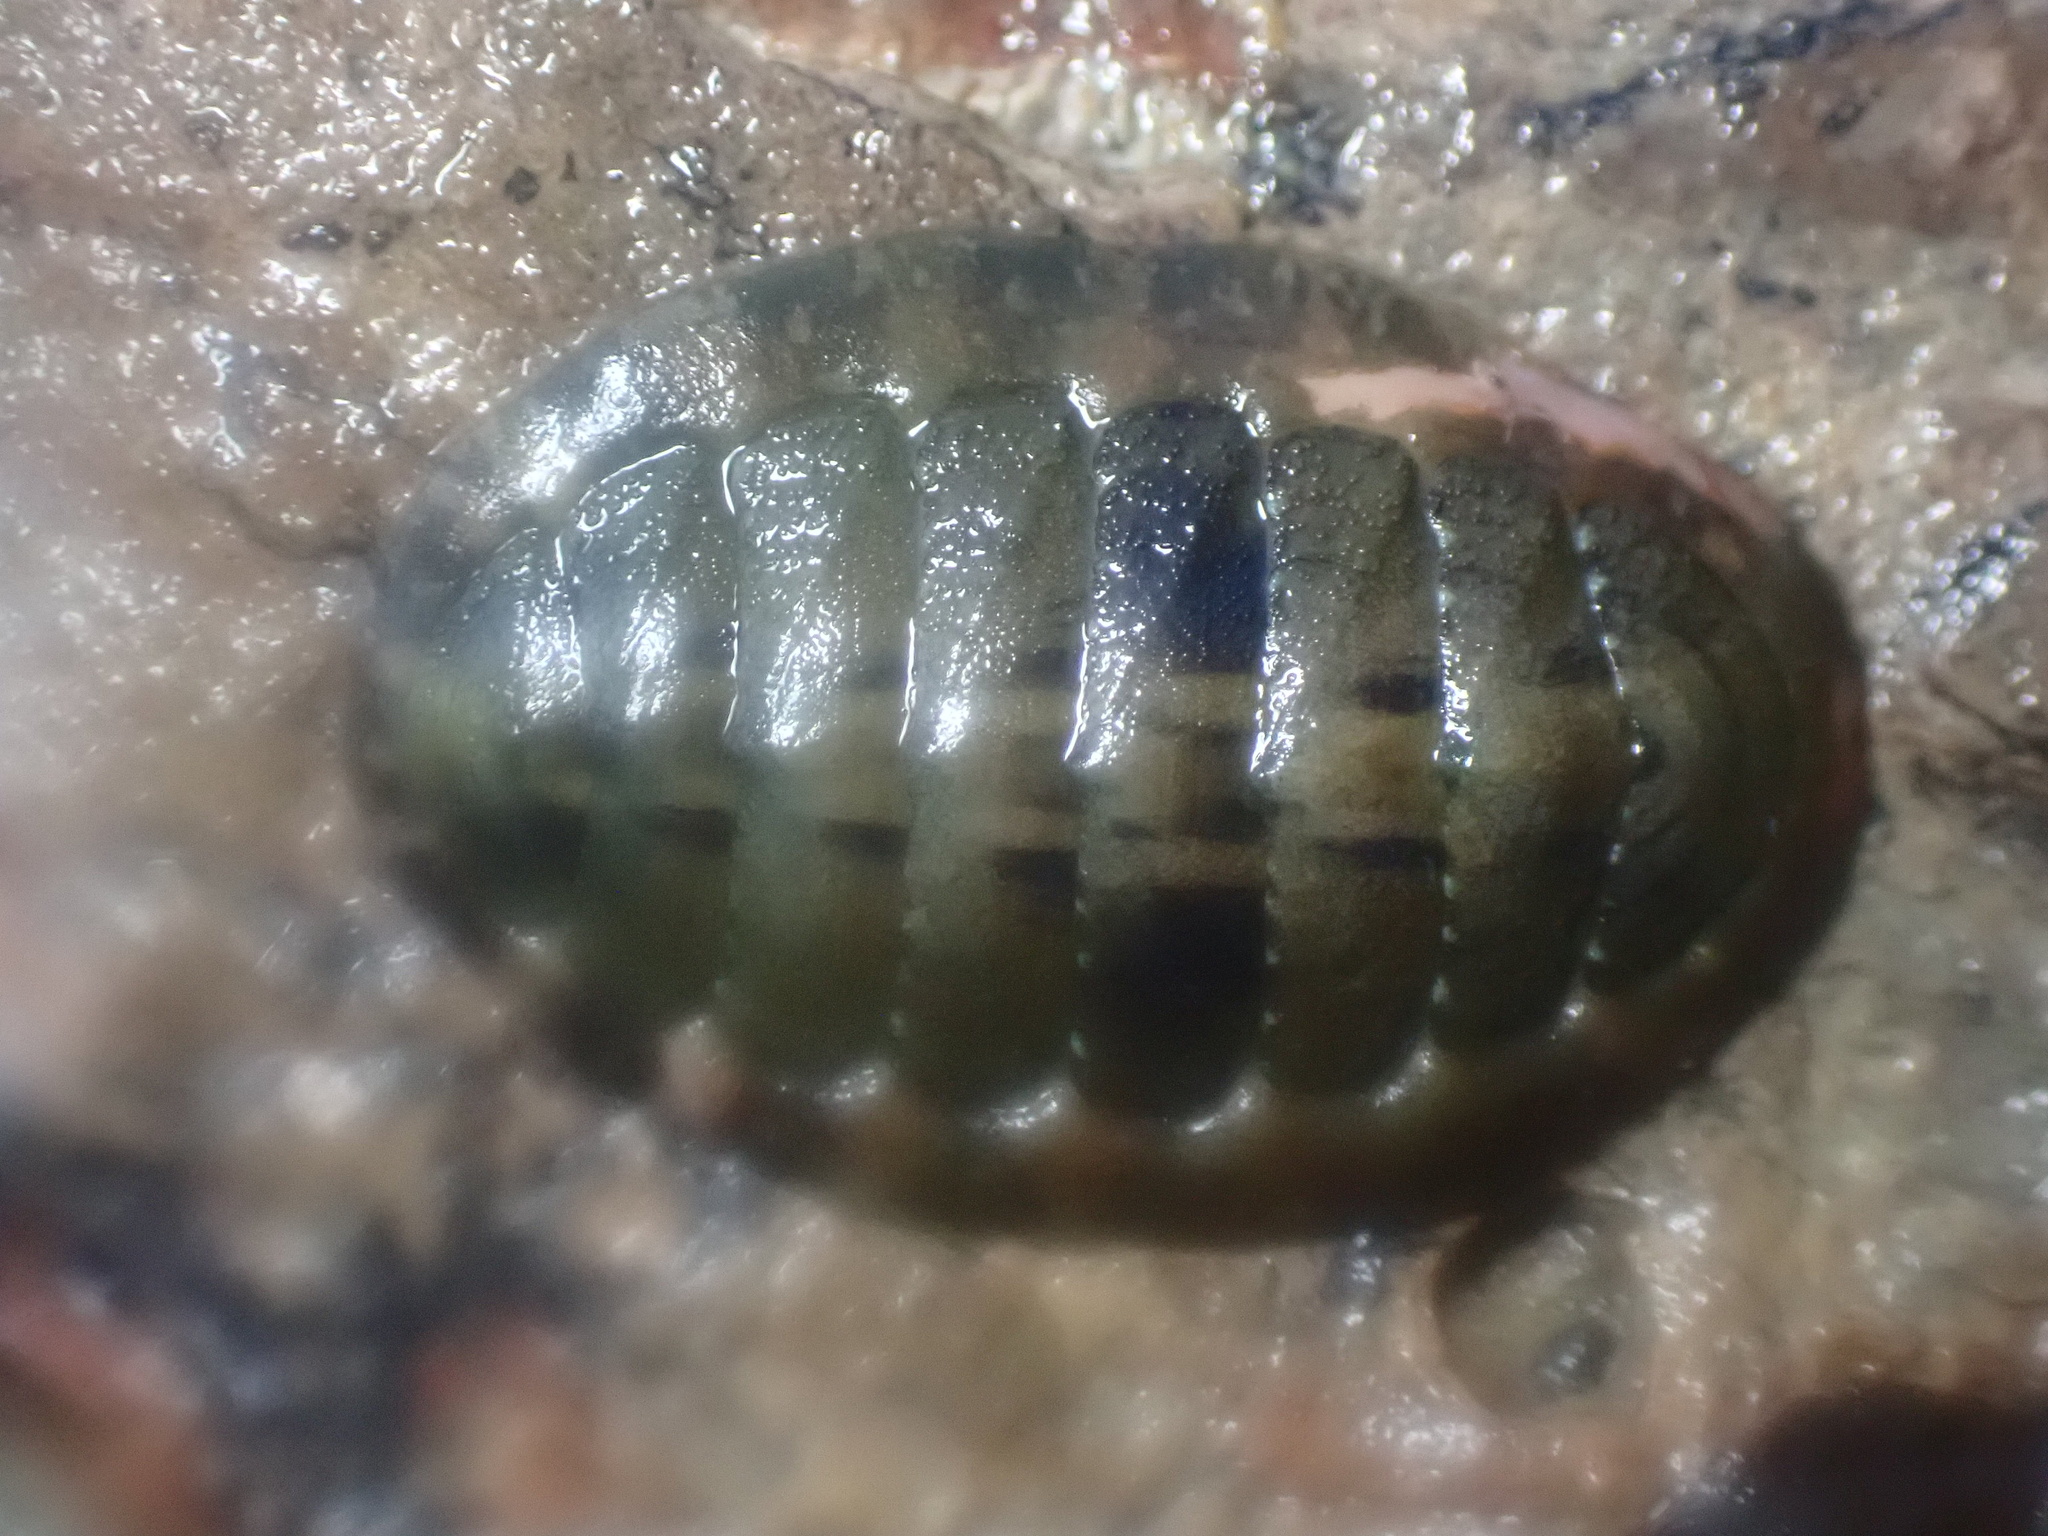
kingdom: Animalia
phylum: Mollusca
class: Polyplacophora
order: Chitonida
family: Tonicellidae
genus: Cyanoplax
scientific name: Cyanoplax hartwegii
